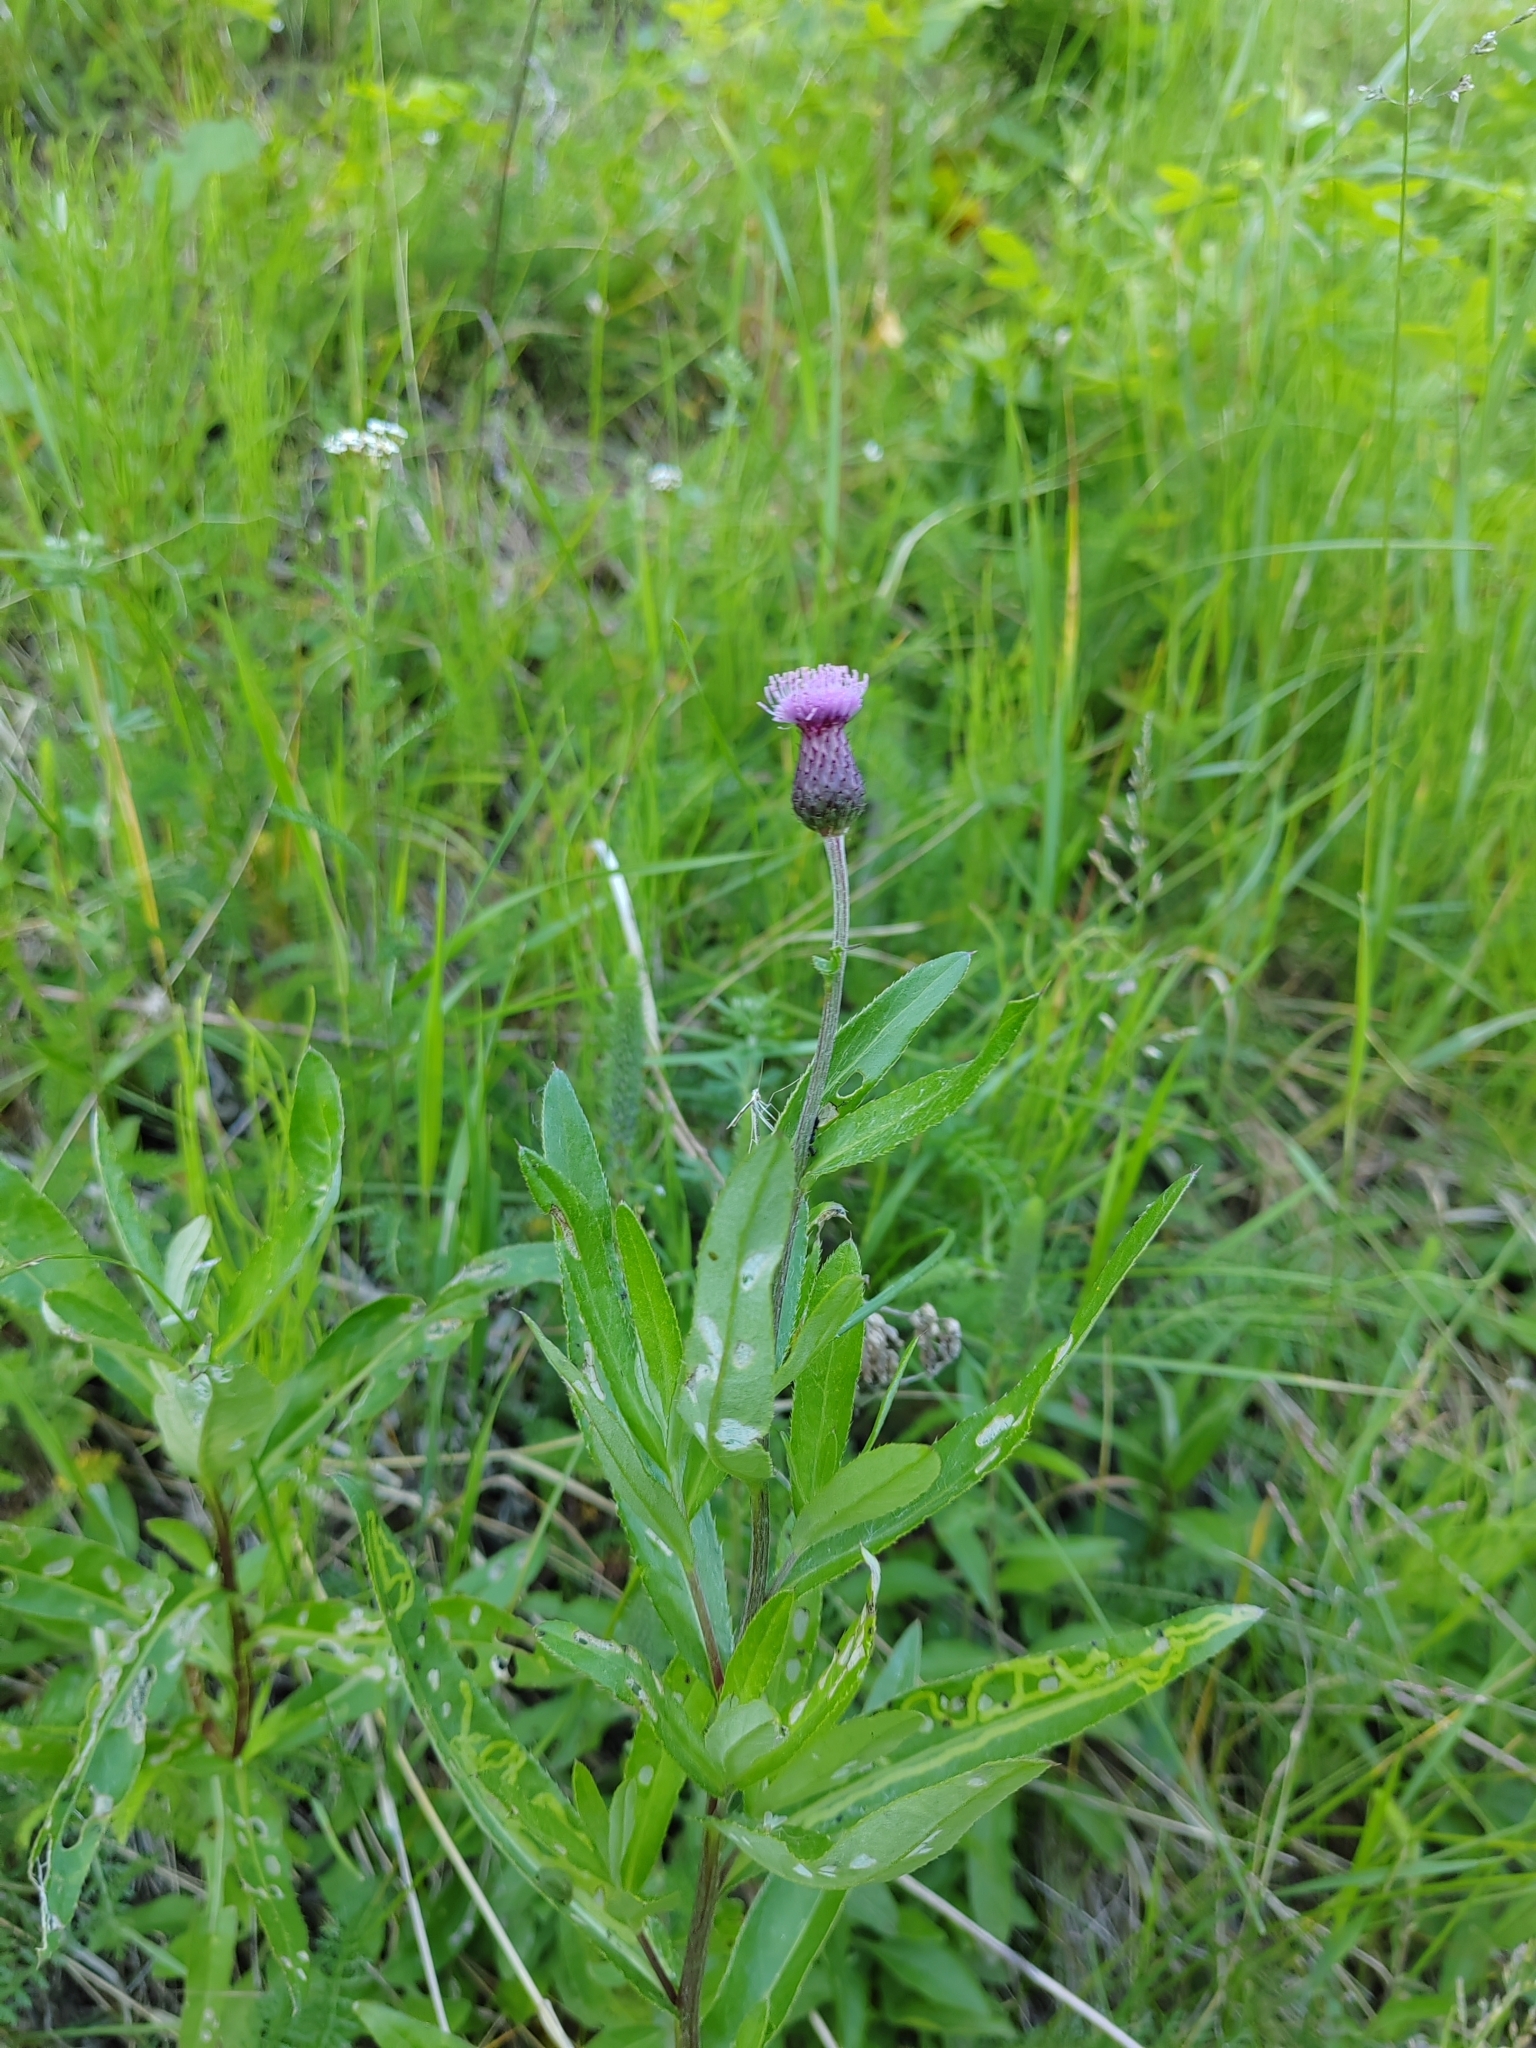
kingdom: Plantae
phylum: Tracheophyta
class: Magnoliopsida
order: Asterales
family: Asteraceae
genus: Cirsium
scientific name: Cirsium arvense
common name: Creeping thistle
